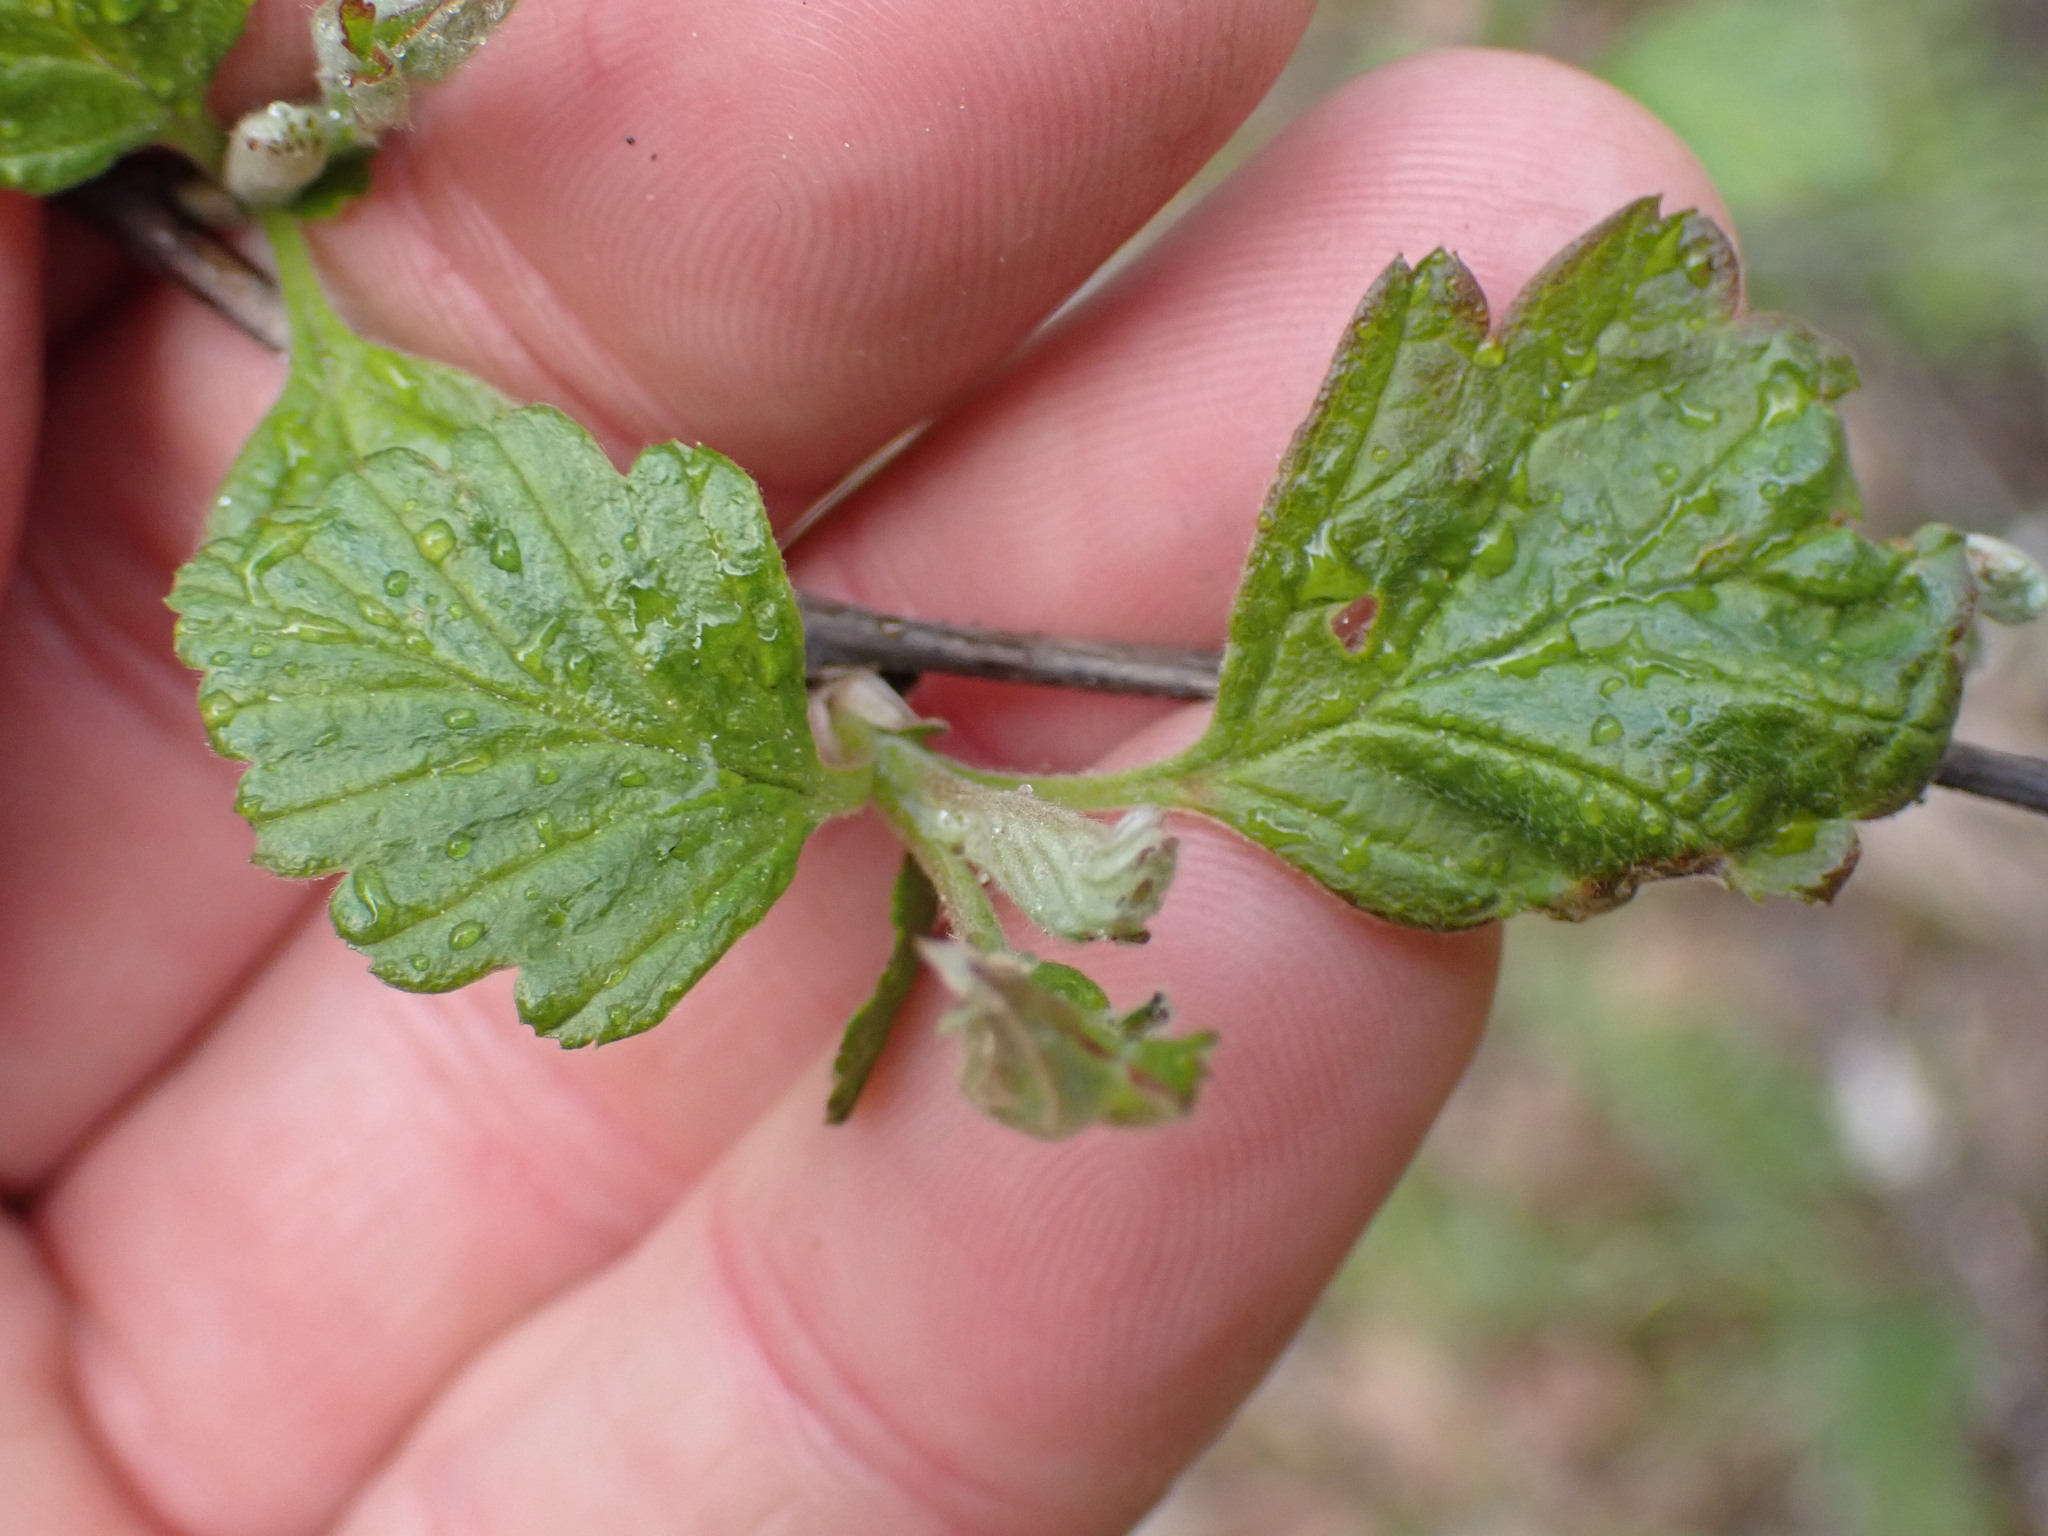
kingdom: Plantae
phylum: Tracheophyta
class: Magnoliopsida
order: Rosales
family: Rosaceae
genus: Holodiscus
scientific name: Holodiscus discolor
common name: Oceanspray
